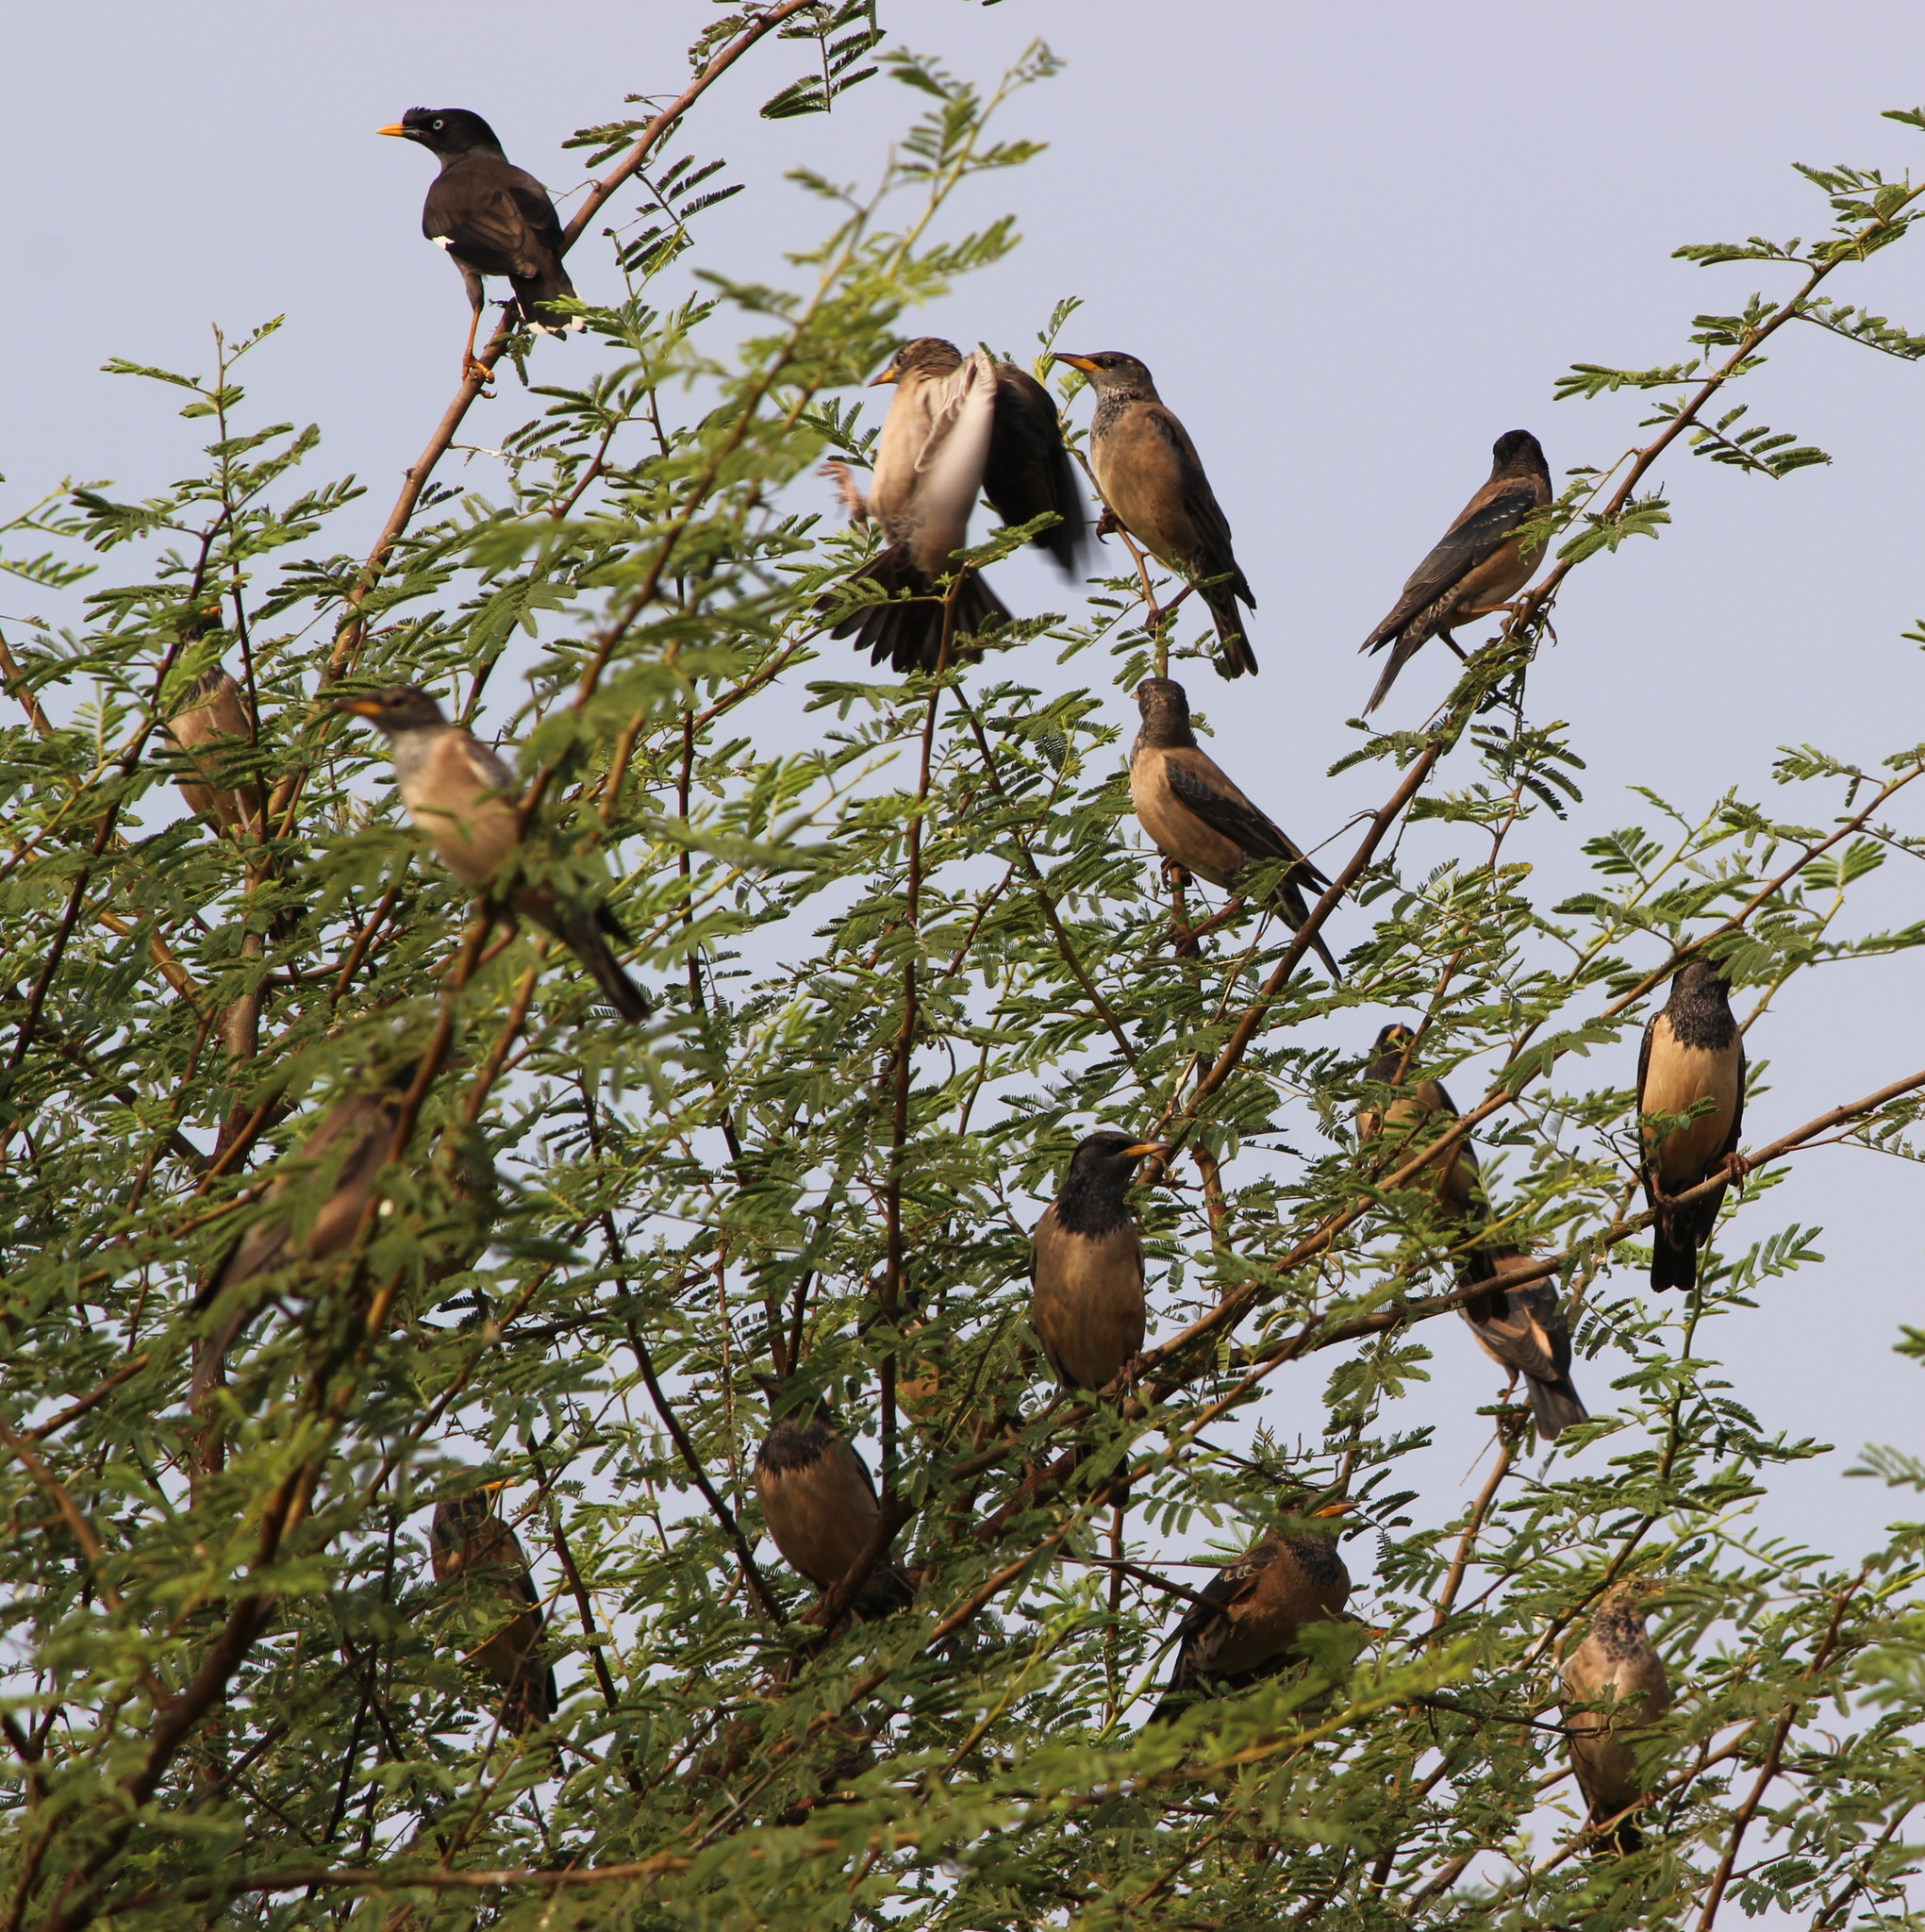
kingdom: Animalia
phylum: Chordata
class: Aves
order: Passeriformes
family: Sturnidae
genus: Pastor
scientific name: Pastor roseus
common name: Rosy starling
